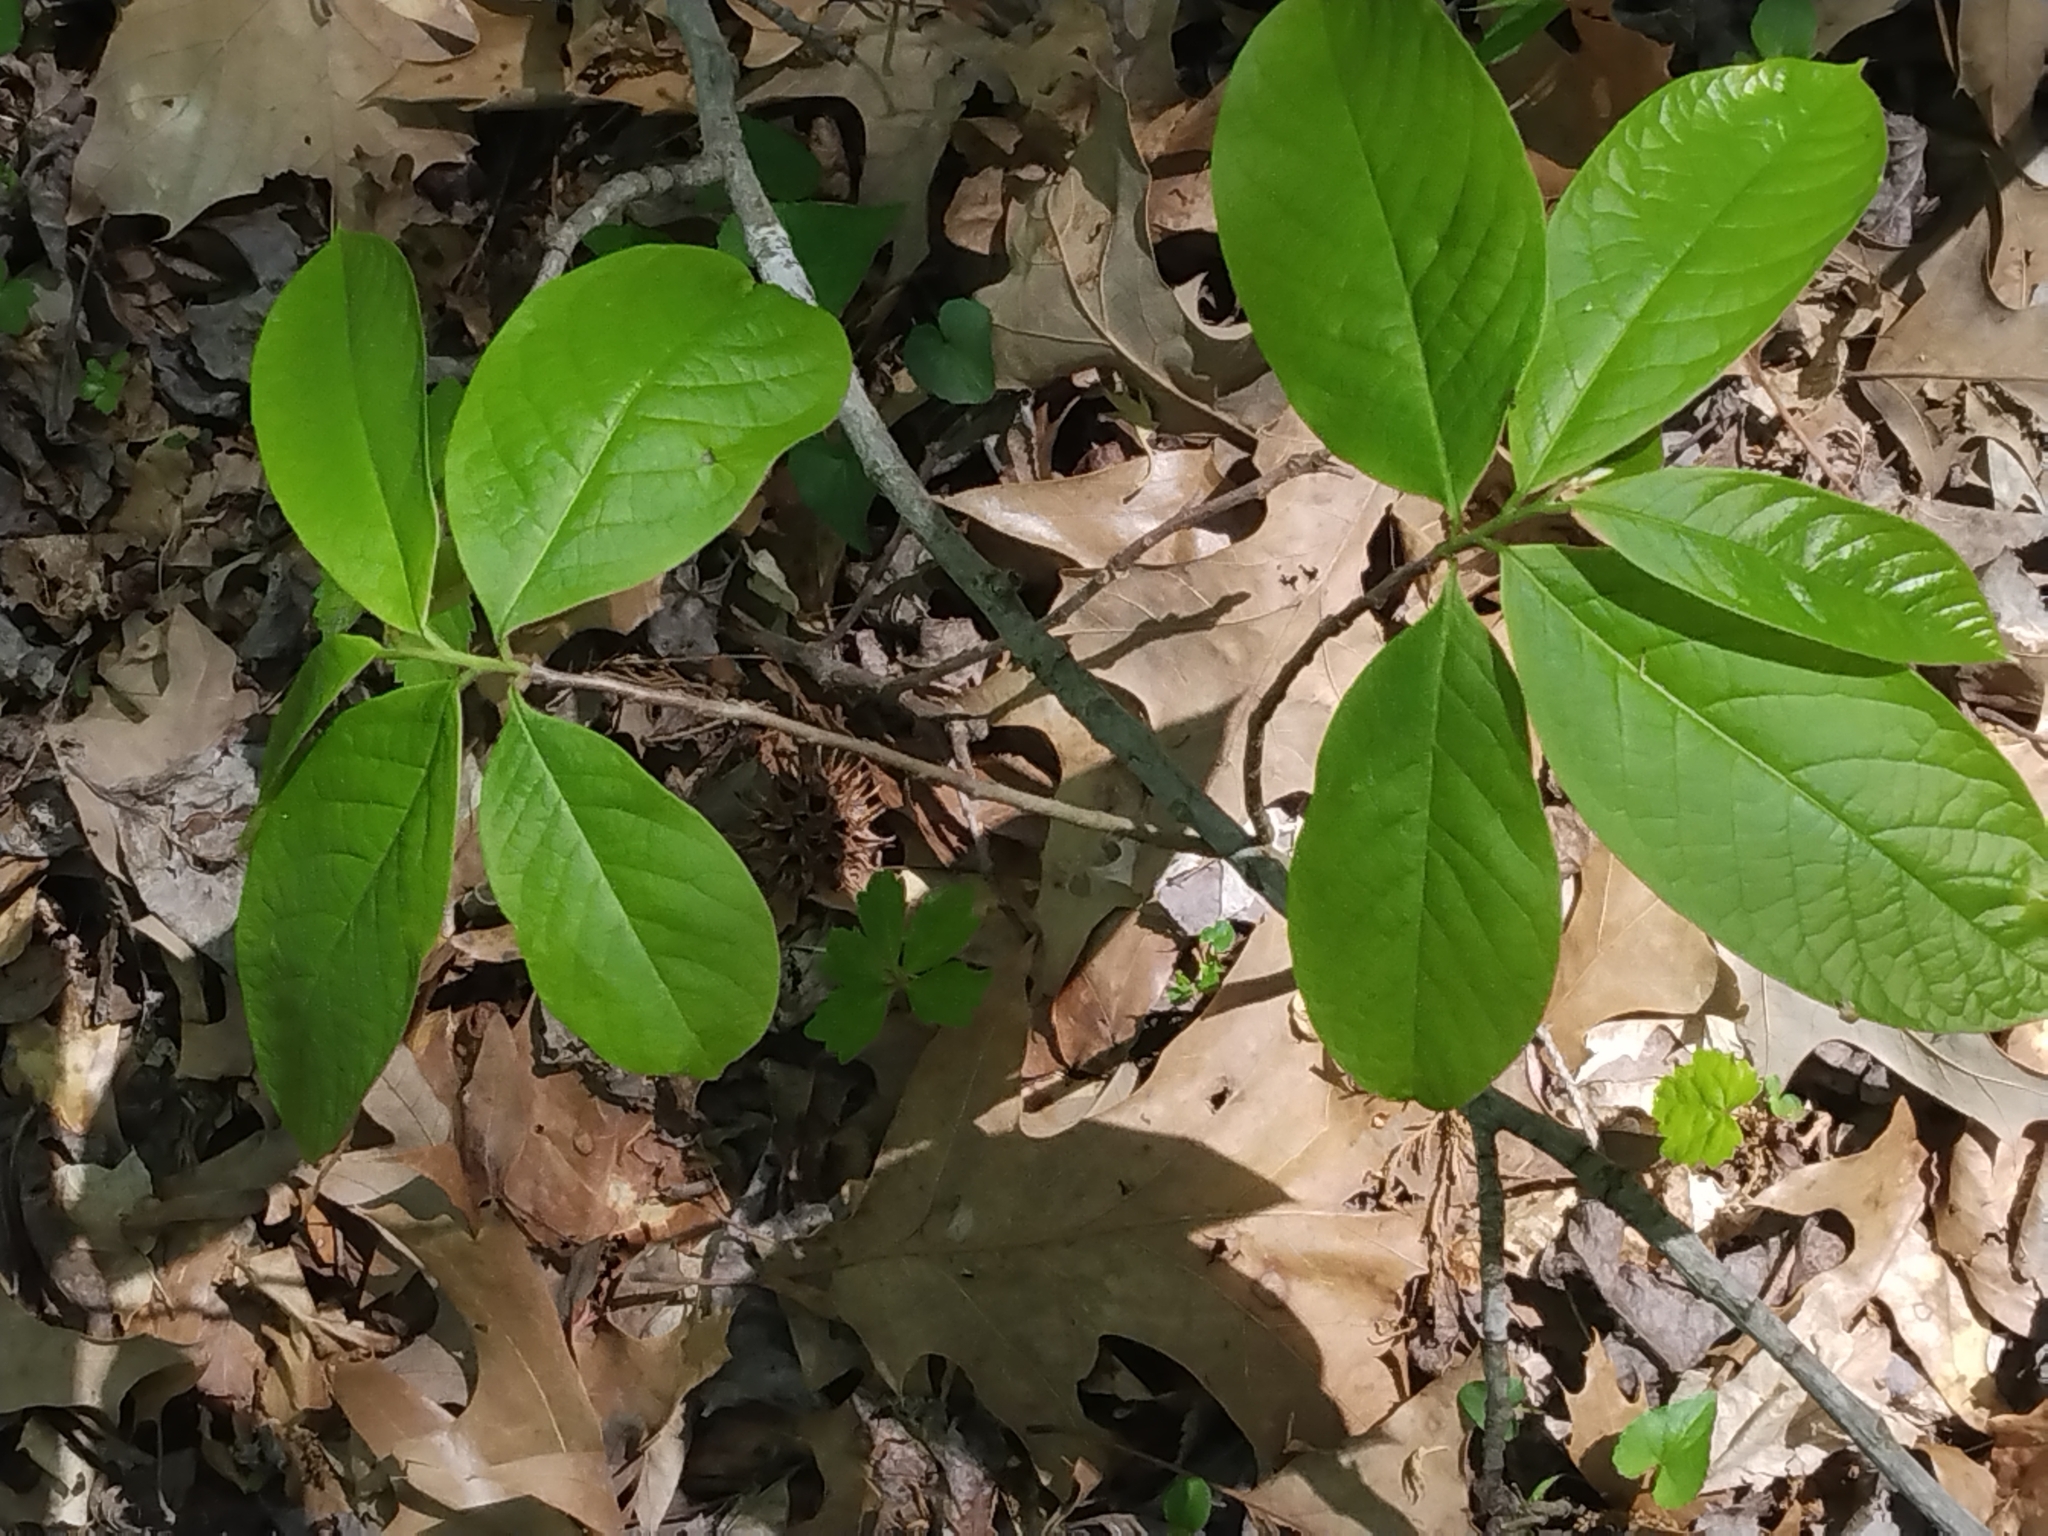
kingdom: Plantae
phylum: Tracheophyta
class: Magnoliopsida
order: Magnoliales
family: Annonaceae
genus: Asimina
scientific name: Asimina triloba
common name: Dog-banana
